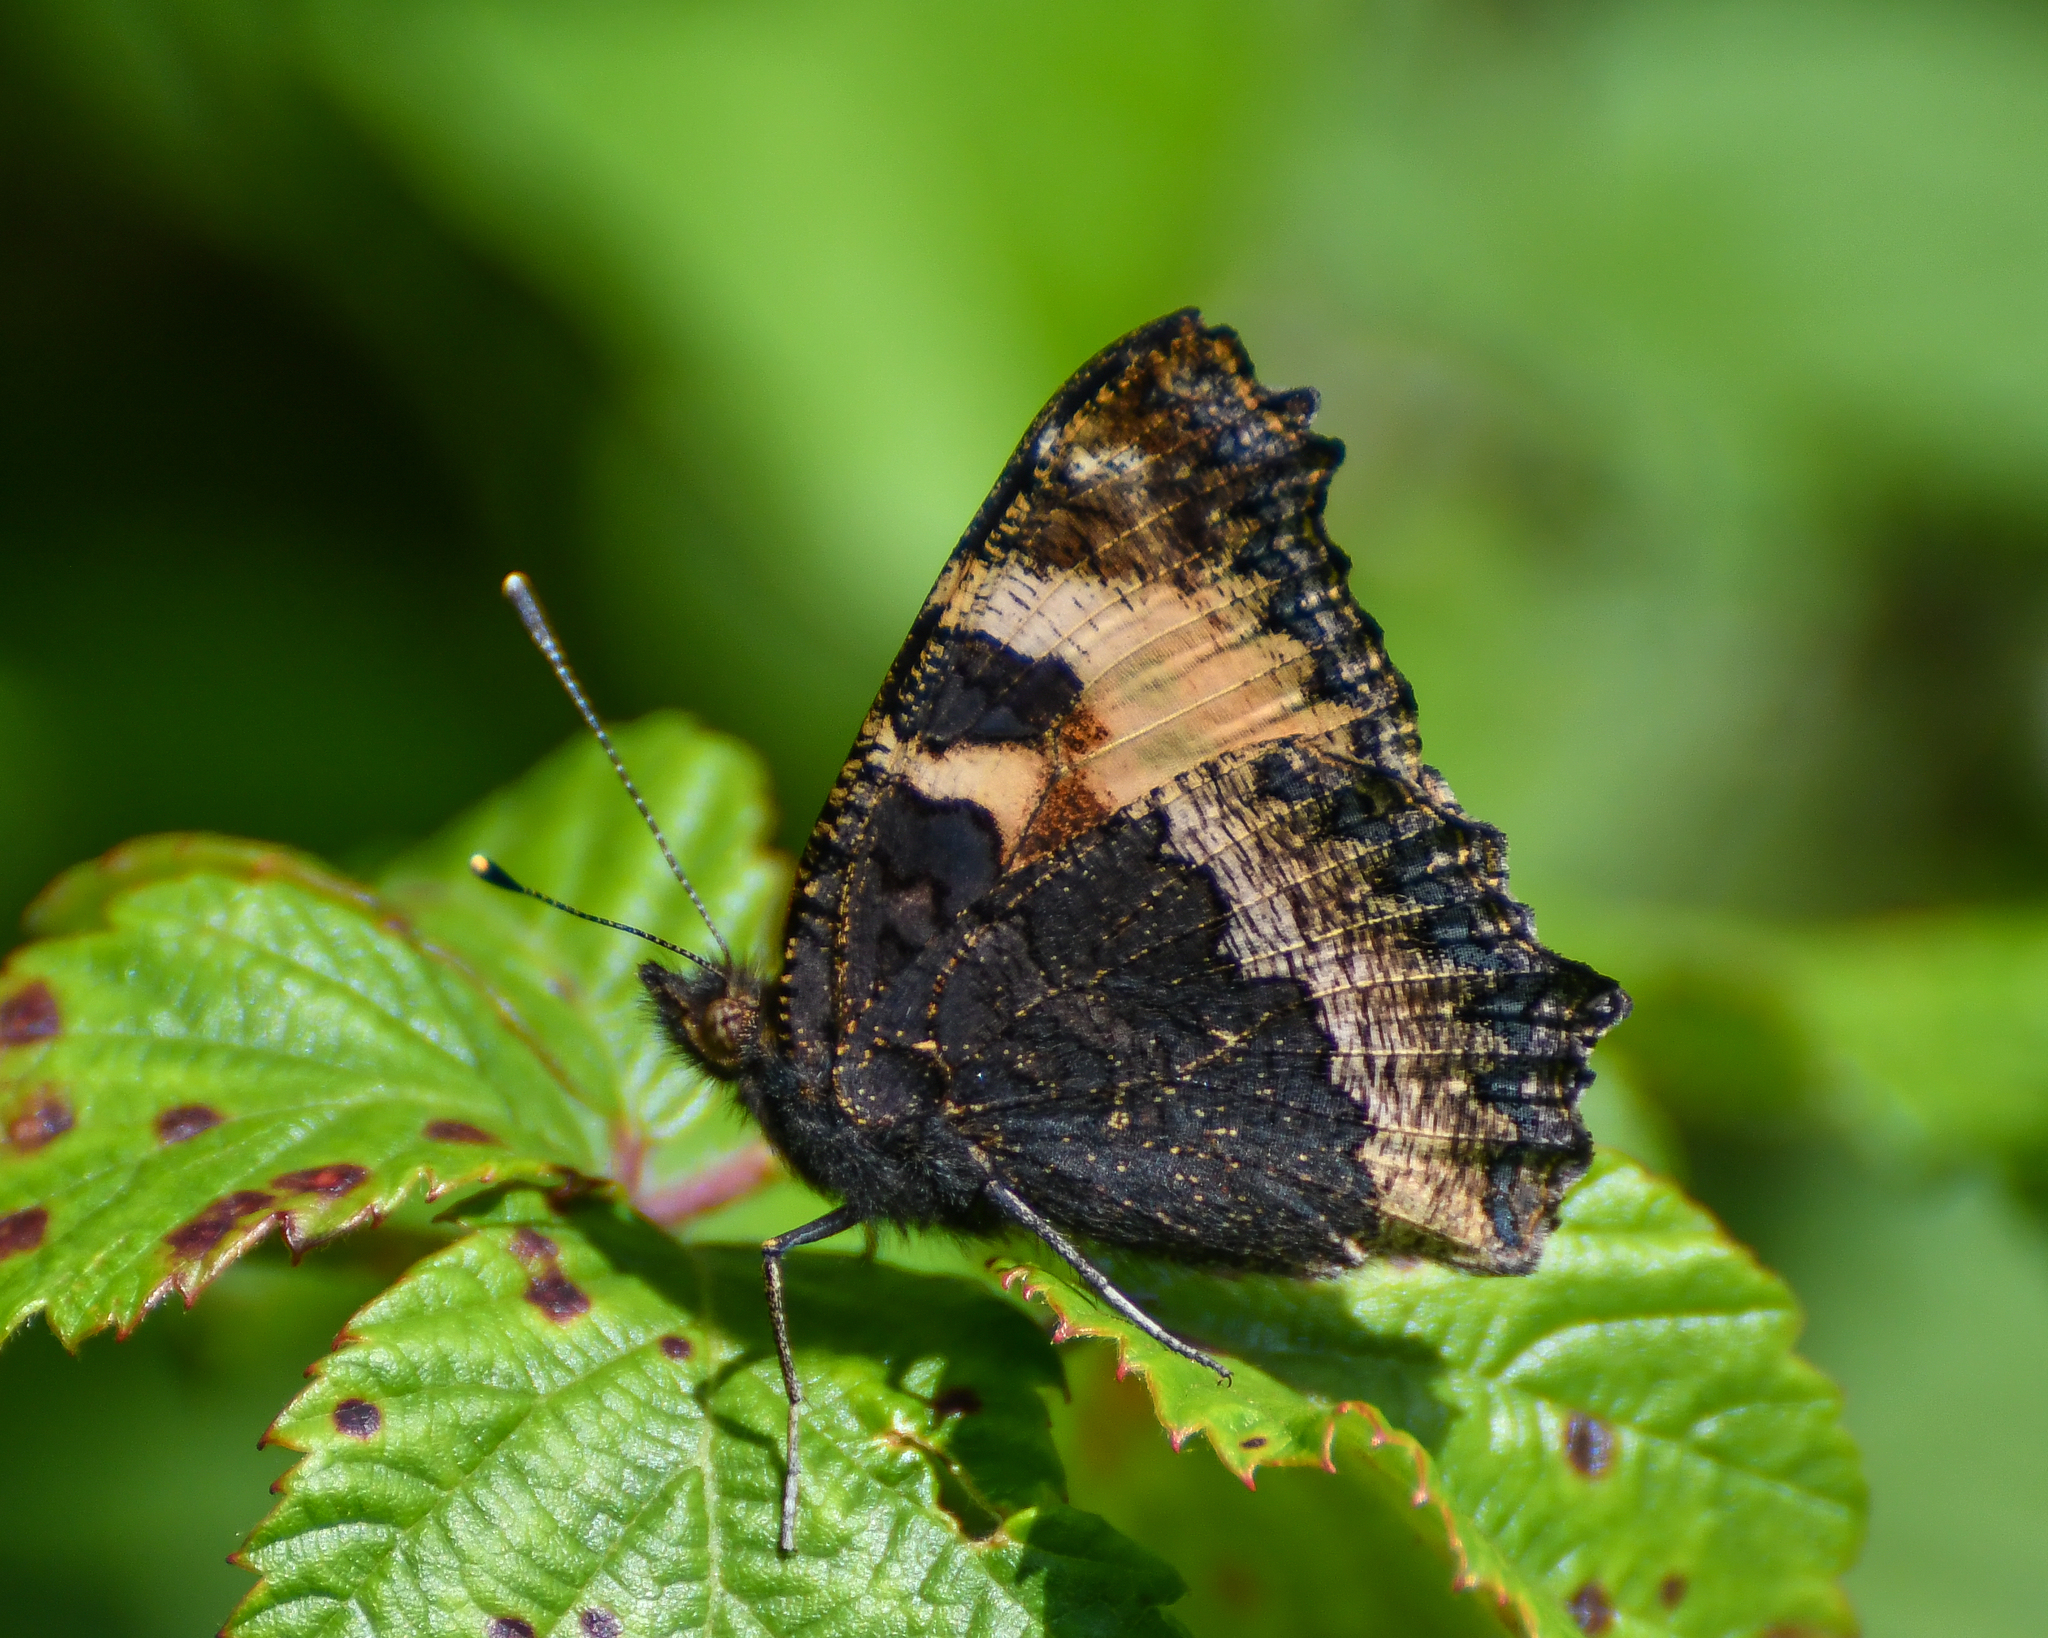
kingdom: Animalia
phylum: Arthropoda
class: Insecta
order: Lepidoptera
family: Nymphalidae
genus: Aglais
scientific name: Aglais urticae
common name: Small tortoiseshell
